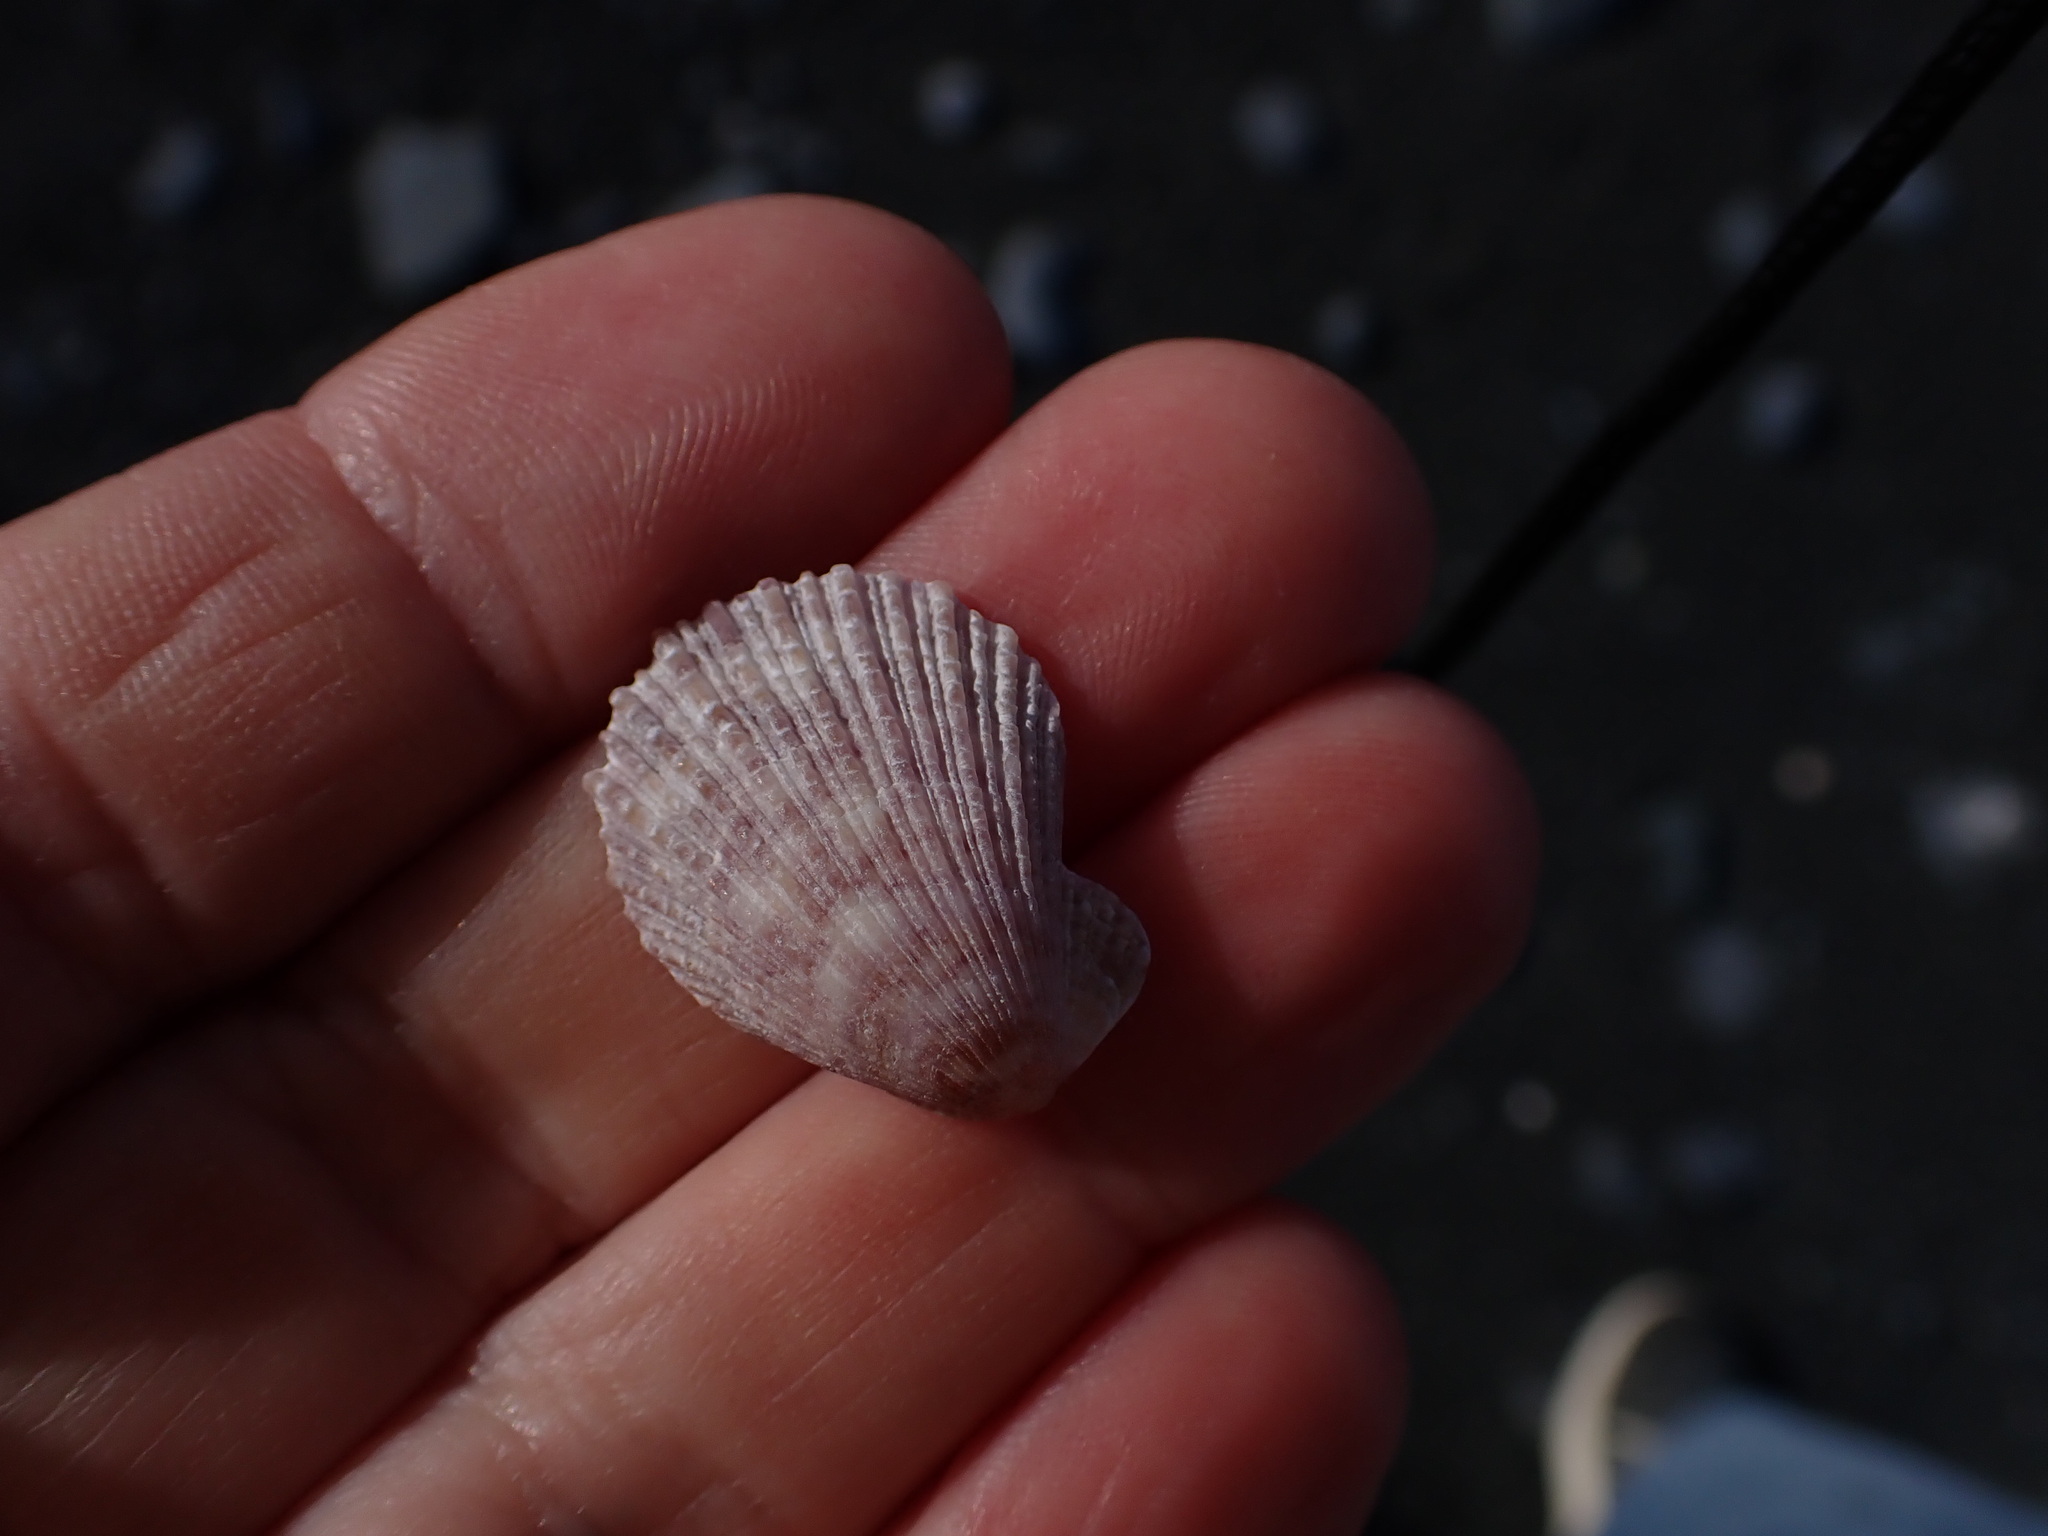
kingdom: Animalia
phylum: Mollusca
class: Bivalvia
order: Pectinida
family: Pectinidae
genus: Talochlamys
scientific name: Talochlamys zelandiae
